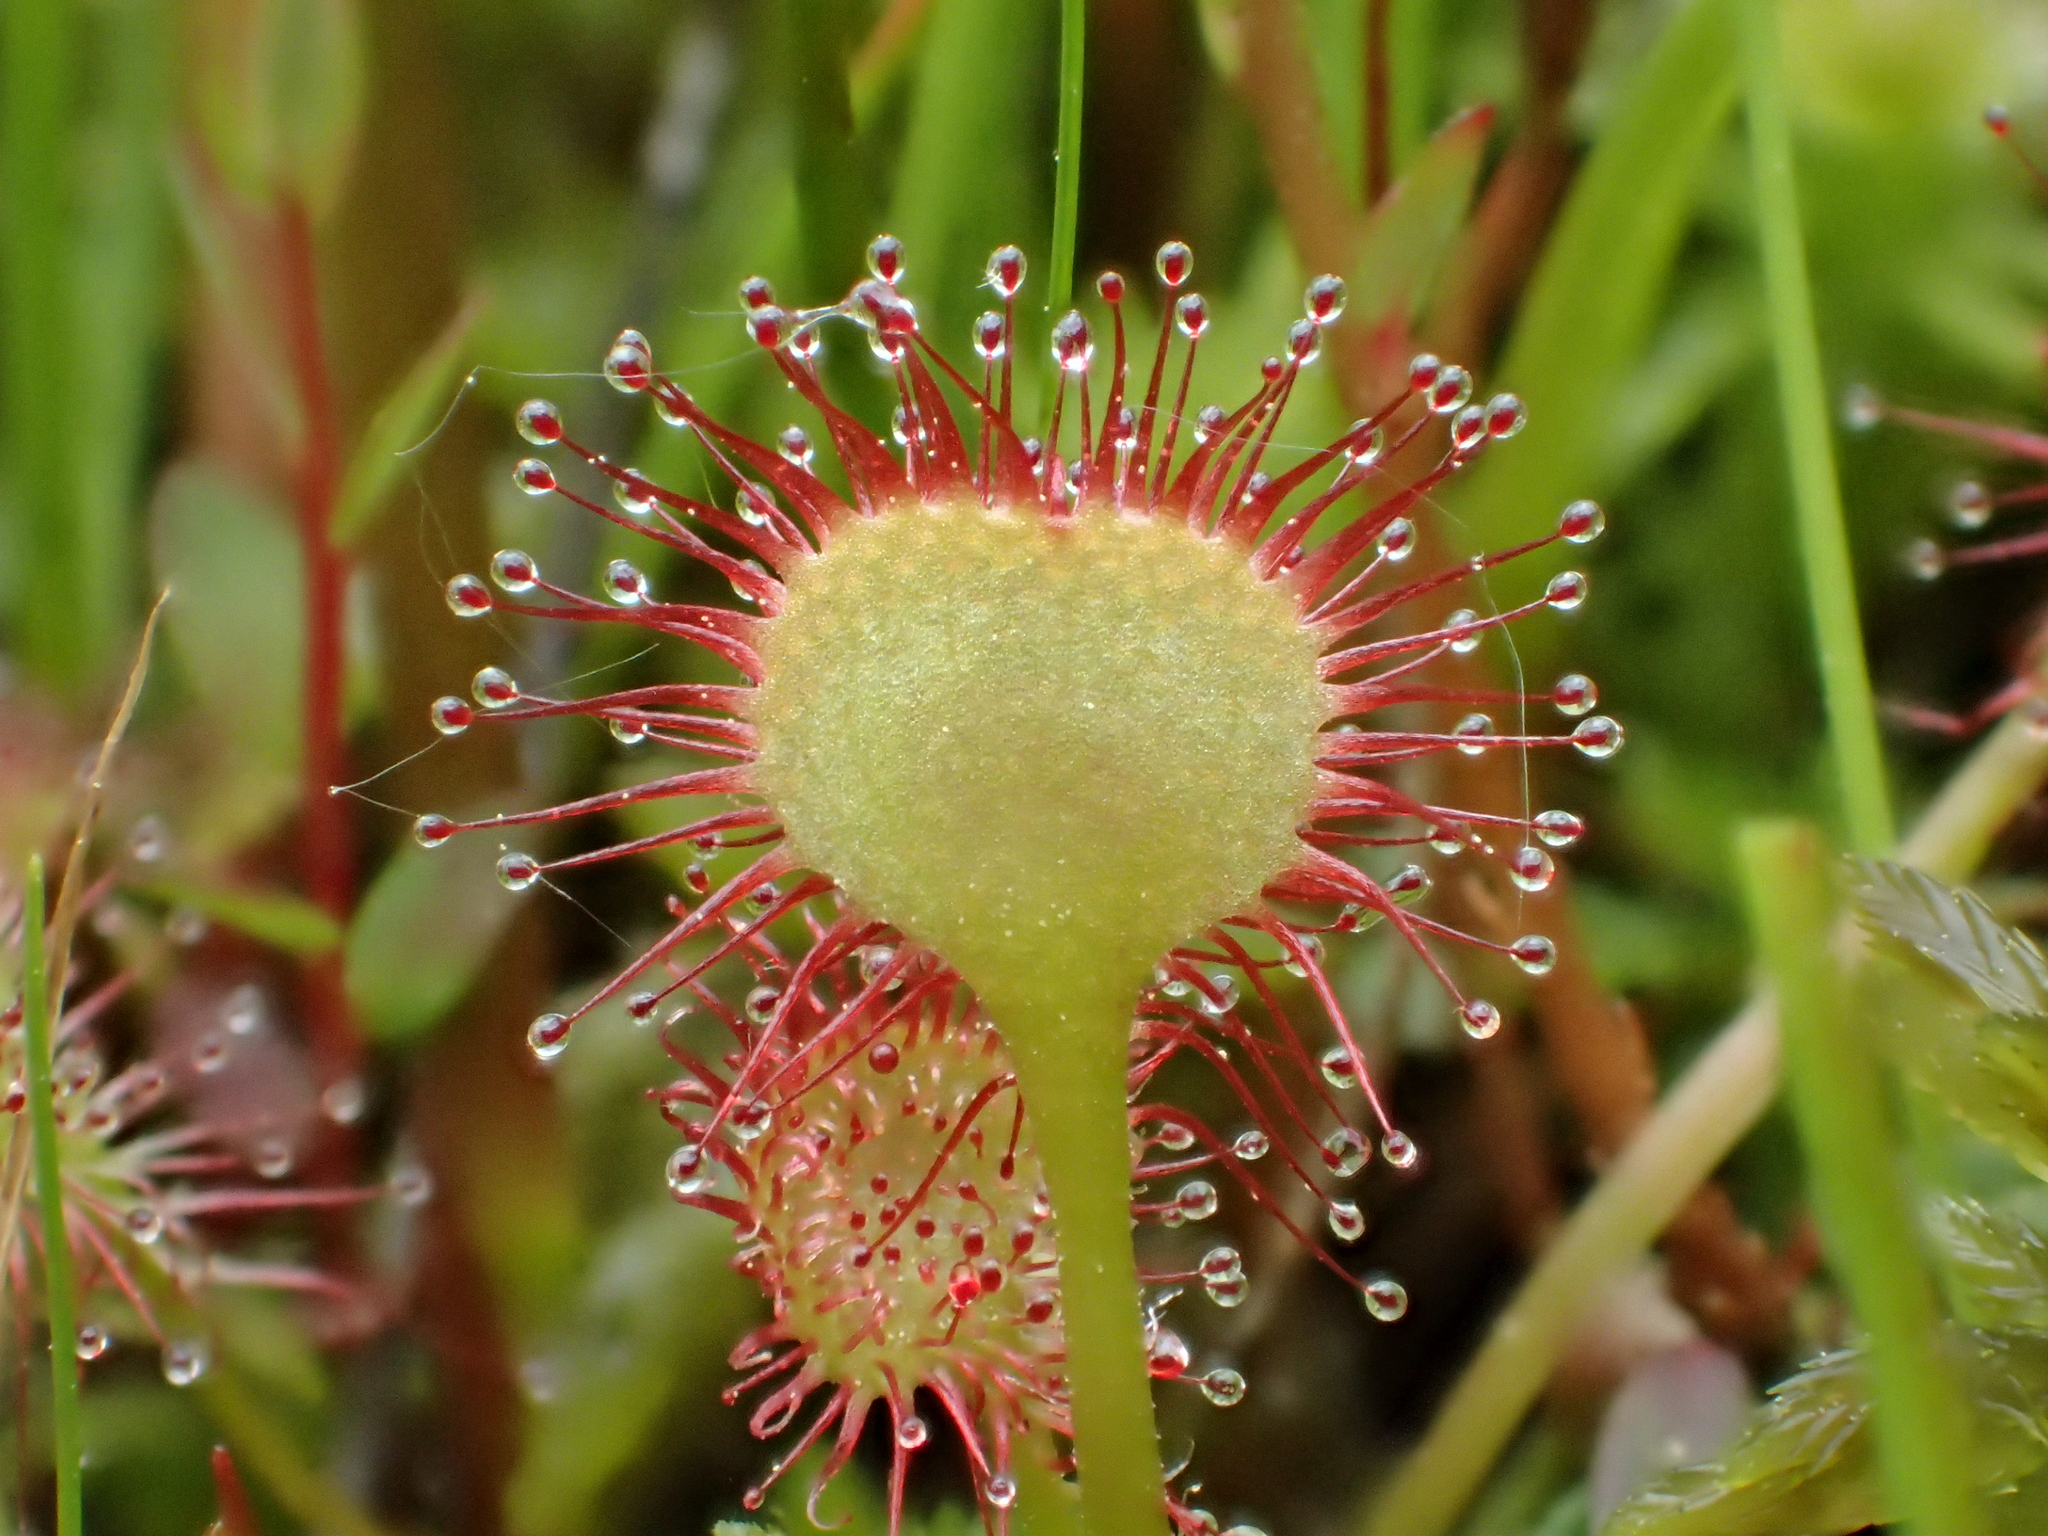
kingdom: Plantae
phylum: Tracheophyta
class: Magnoliopsida
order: Caryophyllales
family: Droseraceae
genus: Drosera
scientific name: Drosera rotundifolia
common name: Round-leaved sundew
